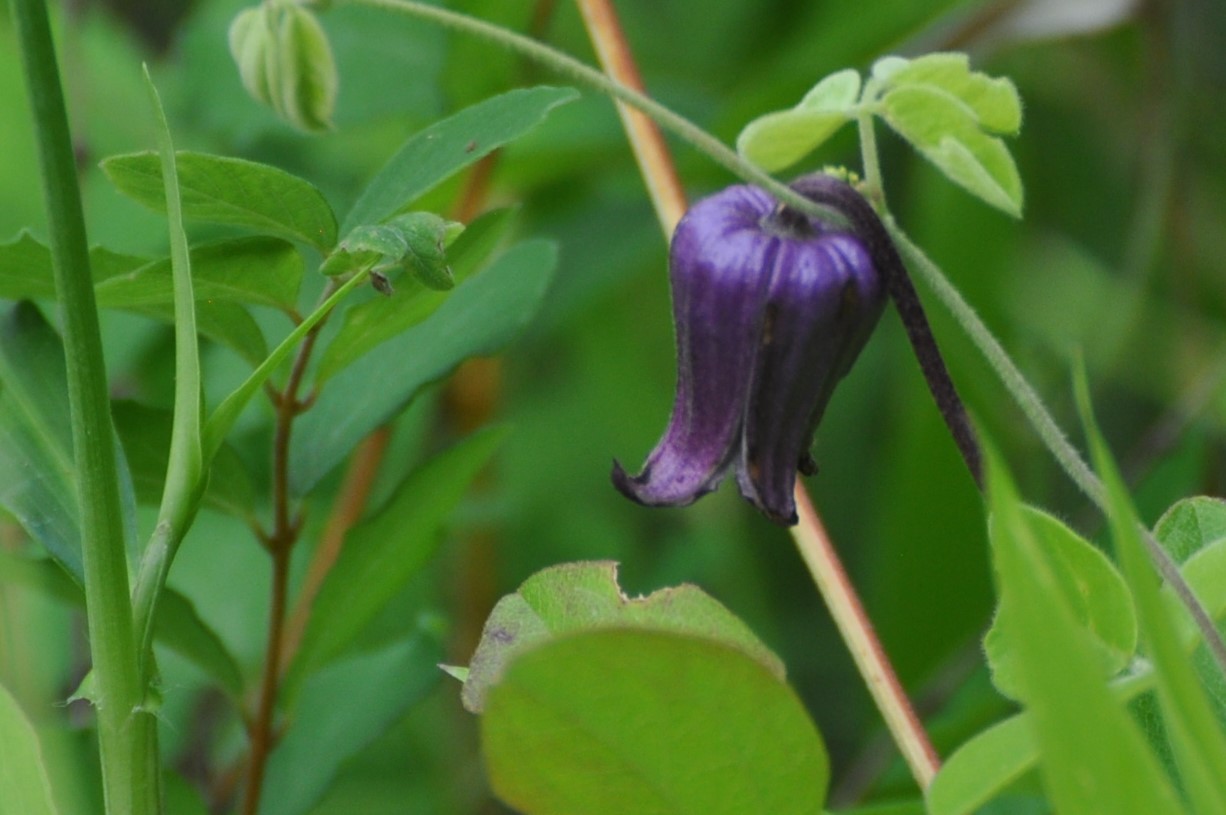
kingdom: Plantae
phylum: Tracheophyta
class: Magnoliopsida
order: Ranunculales
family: Ranunculaceae
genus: Clematis
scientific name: Clematis pitcheri
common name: Bellflower clematis
